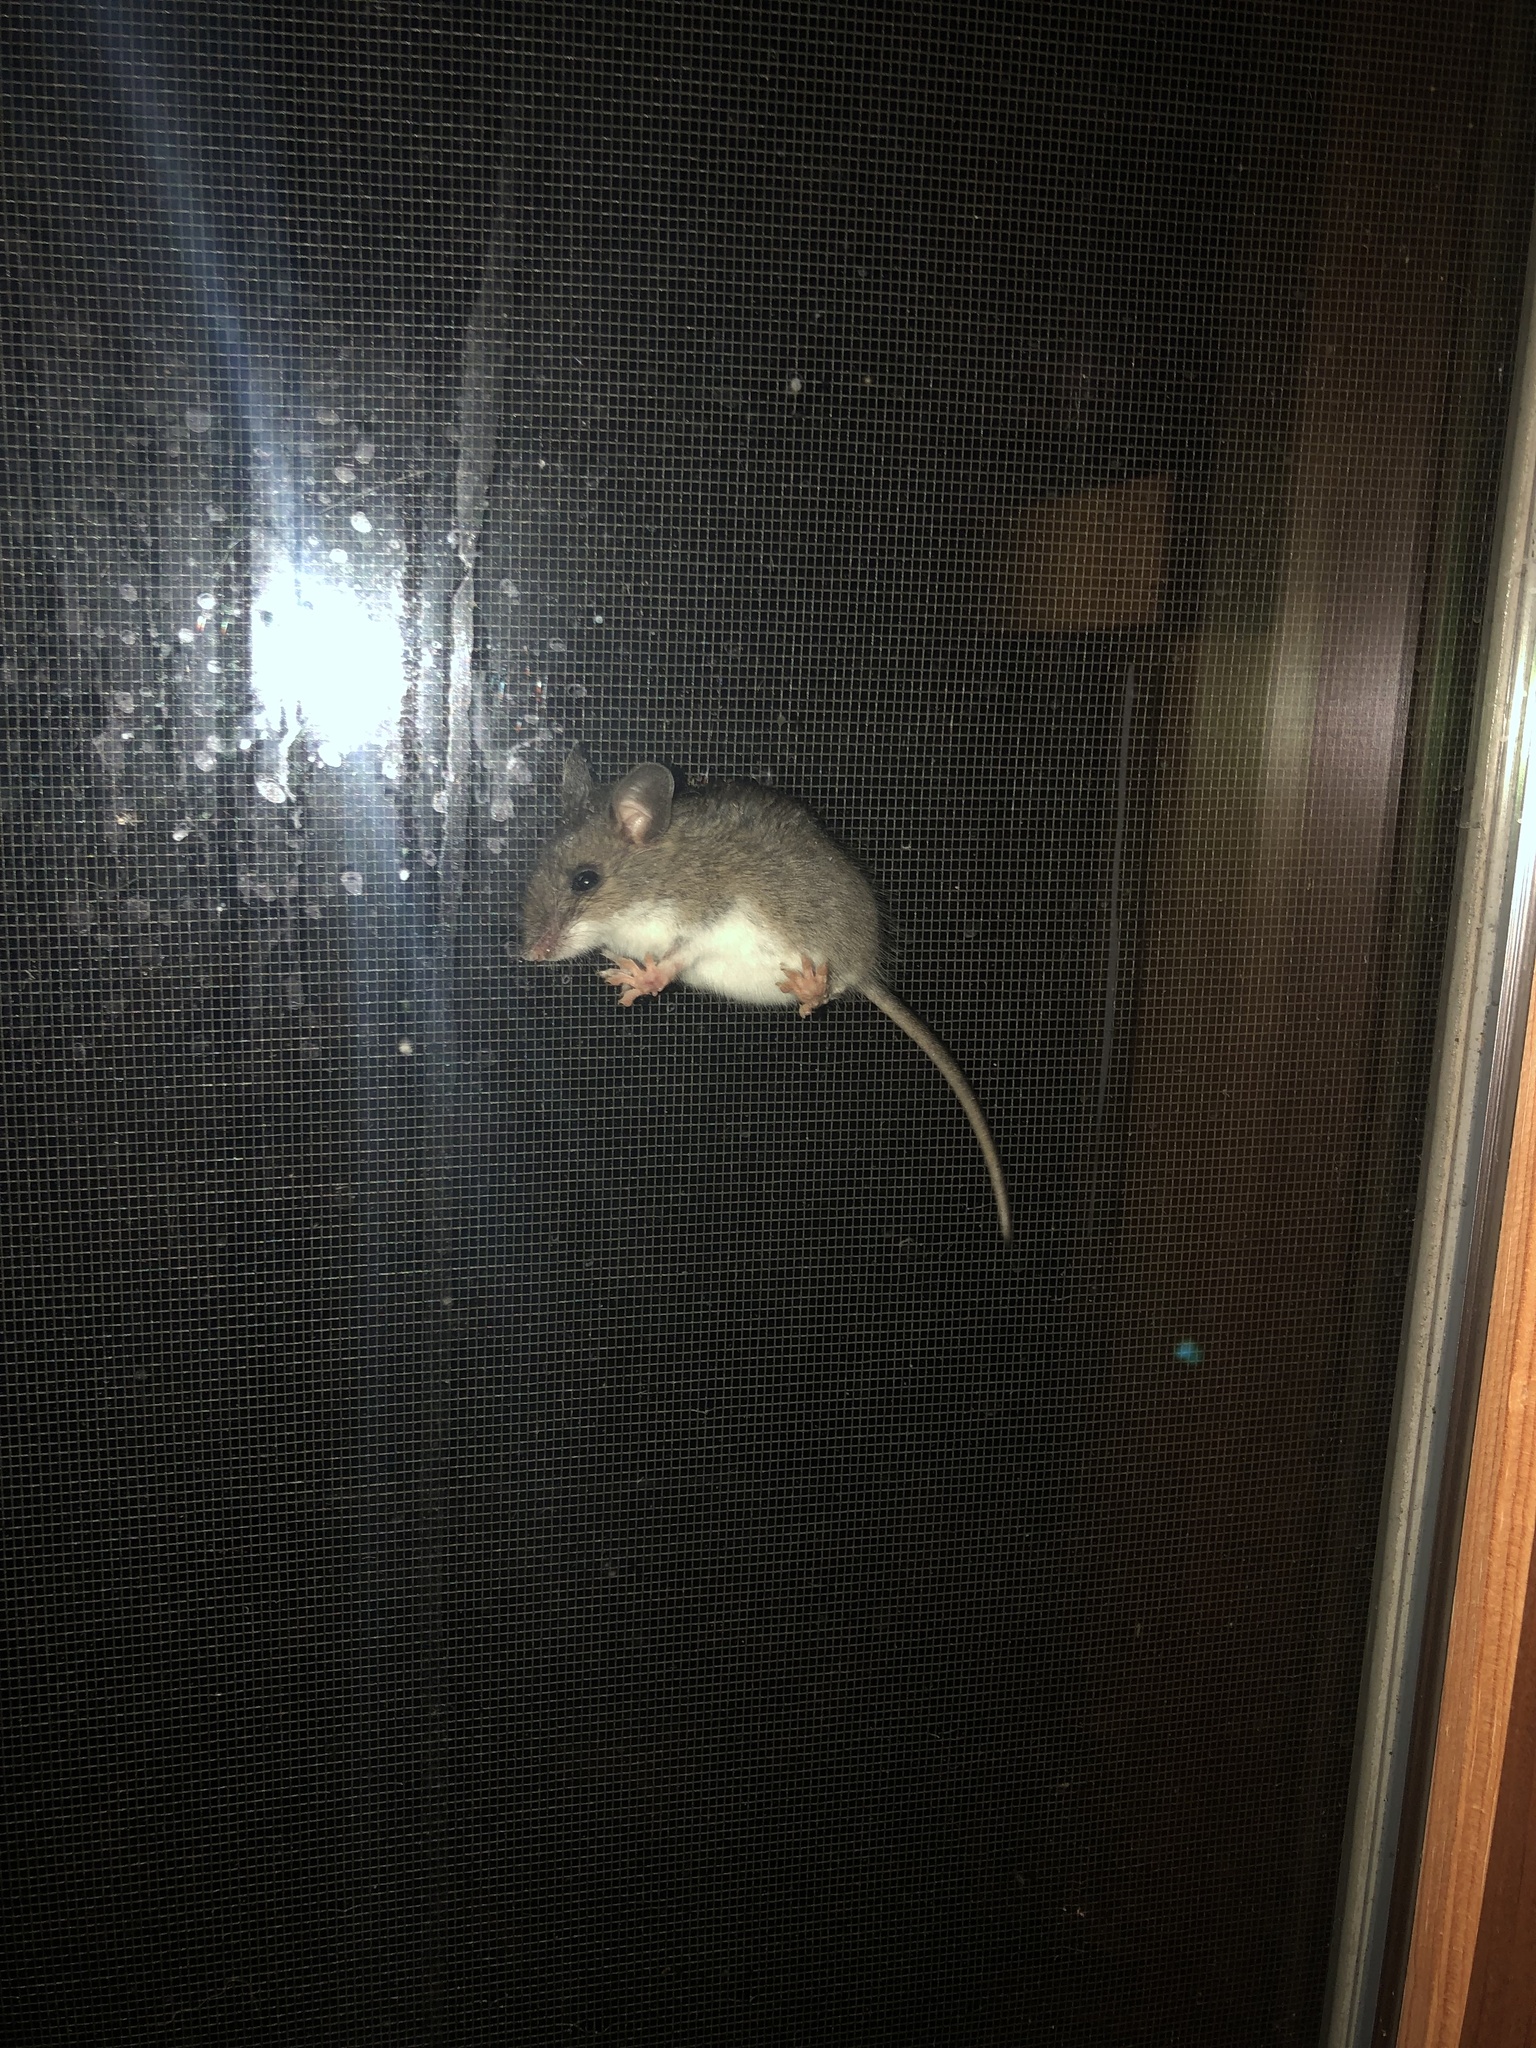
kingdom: Animalia
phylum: Chordata
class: Mammalia
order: Rodentia
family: Cricetidae
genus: Peromyscus
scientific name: Peromyscus leucopus
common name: White-footed deermouse
